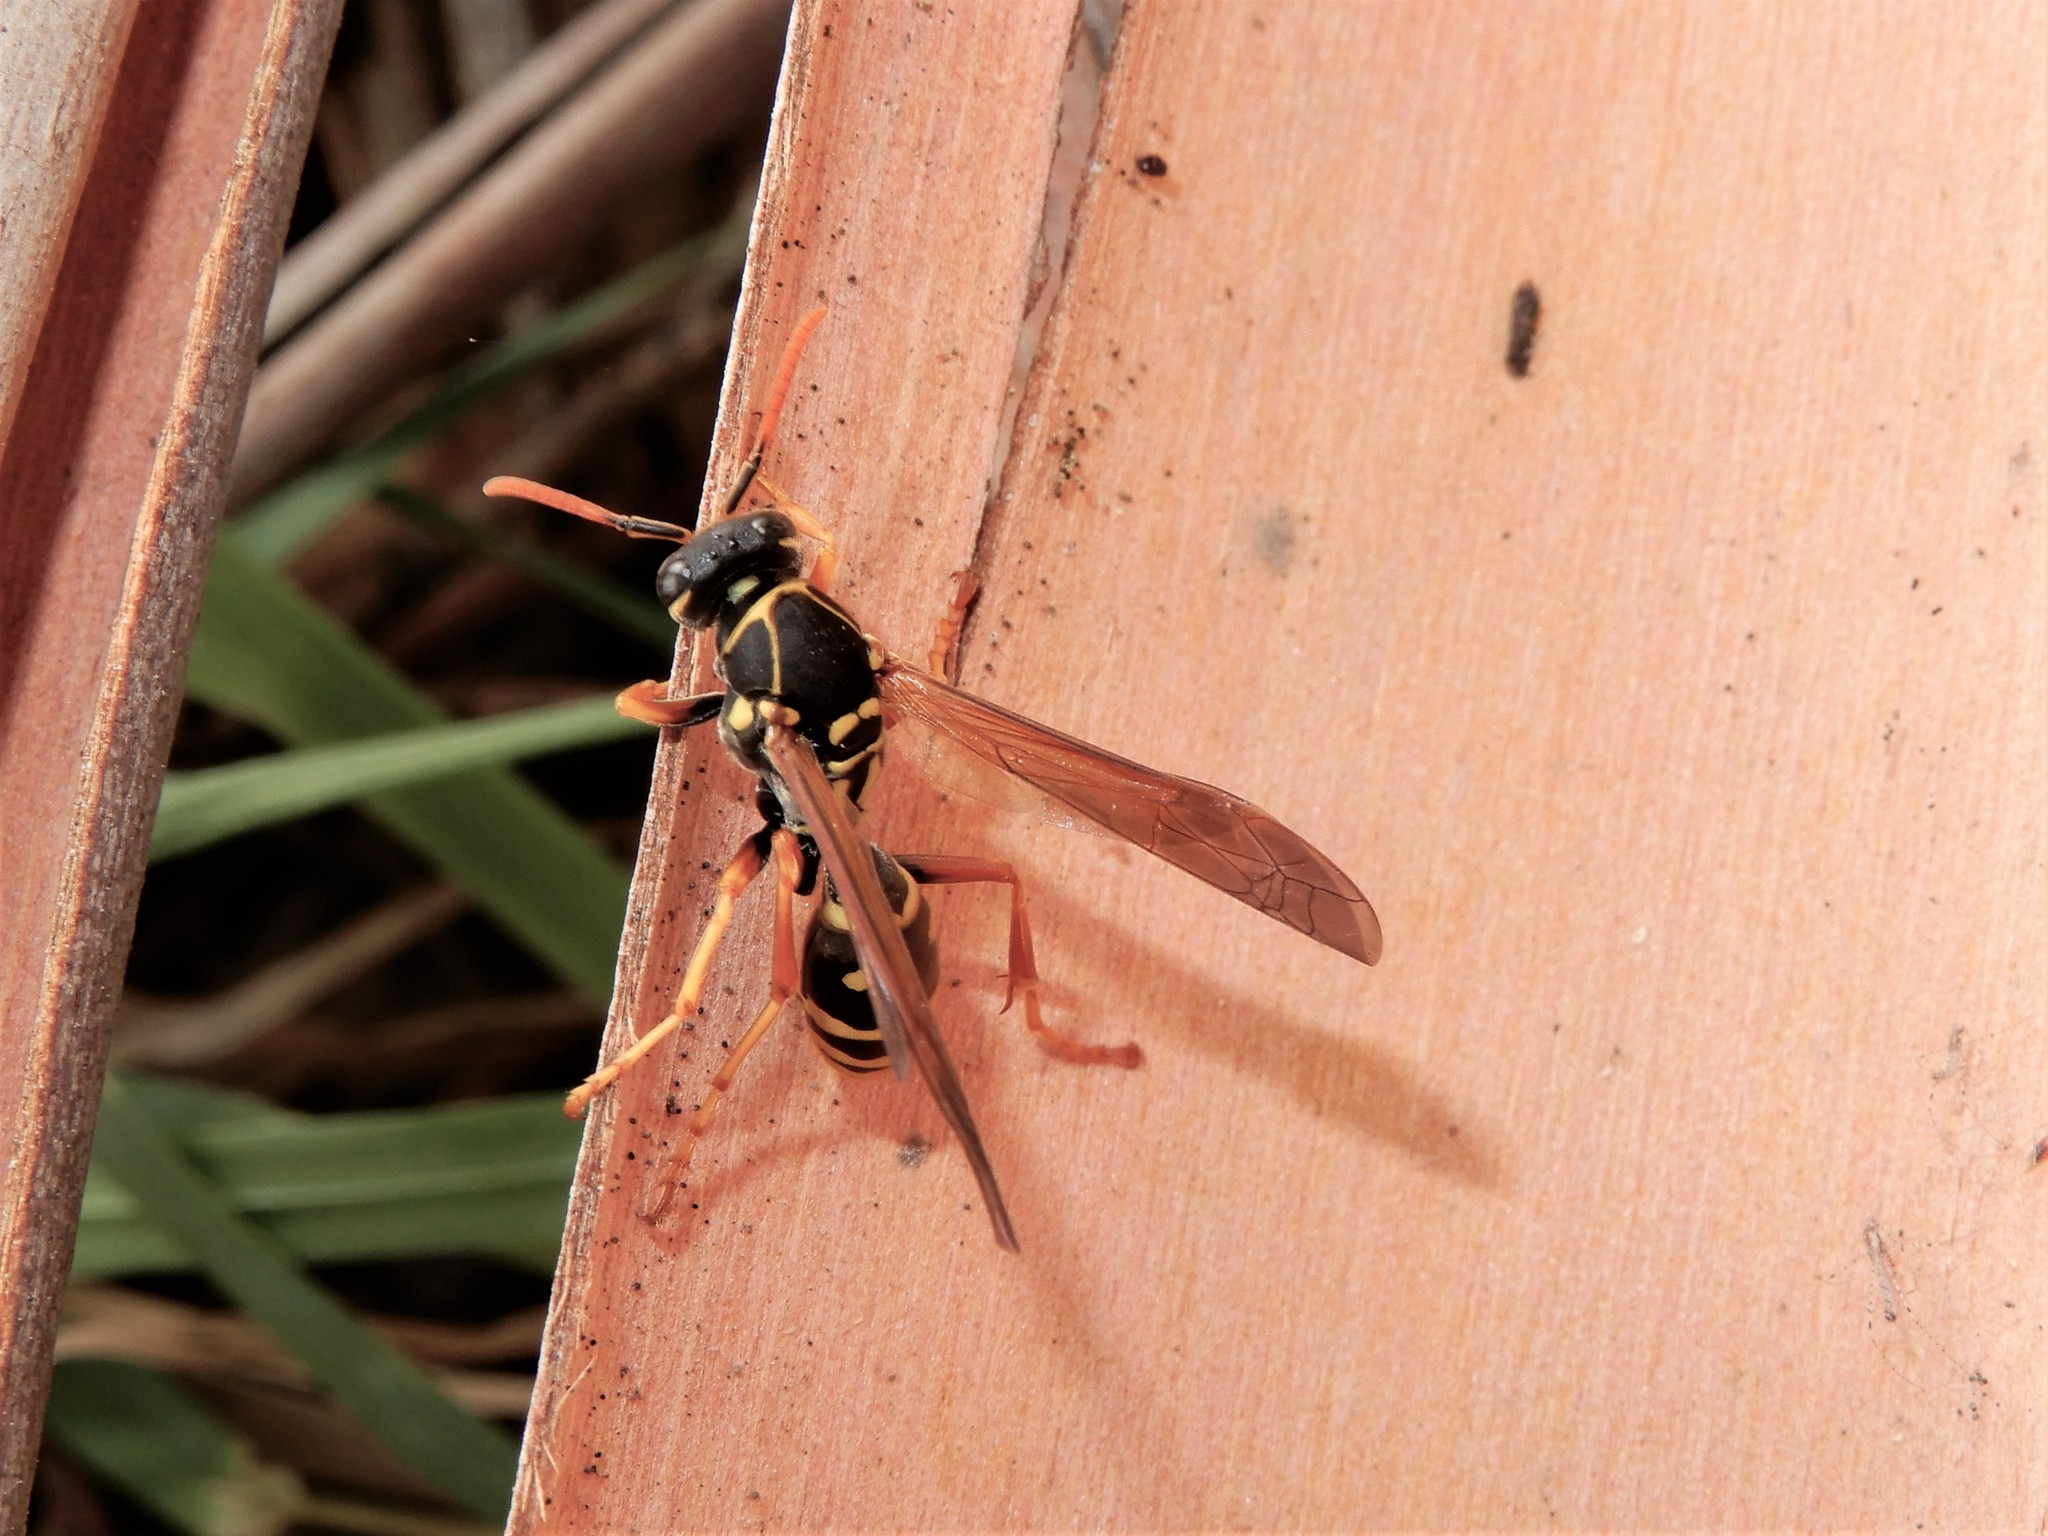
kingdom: Animalia
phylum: Arthropoda
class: Insecta
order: Hymenoptera
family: Eumenidae
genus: Polistes
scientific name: Polistes chinensis
